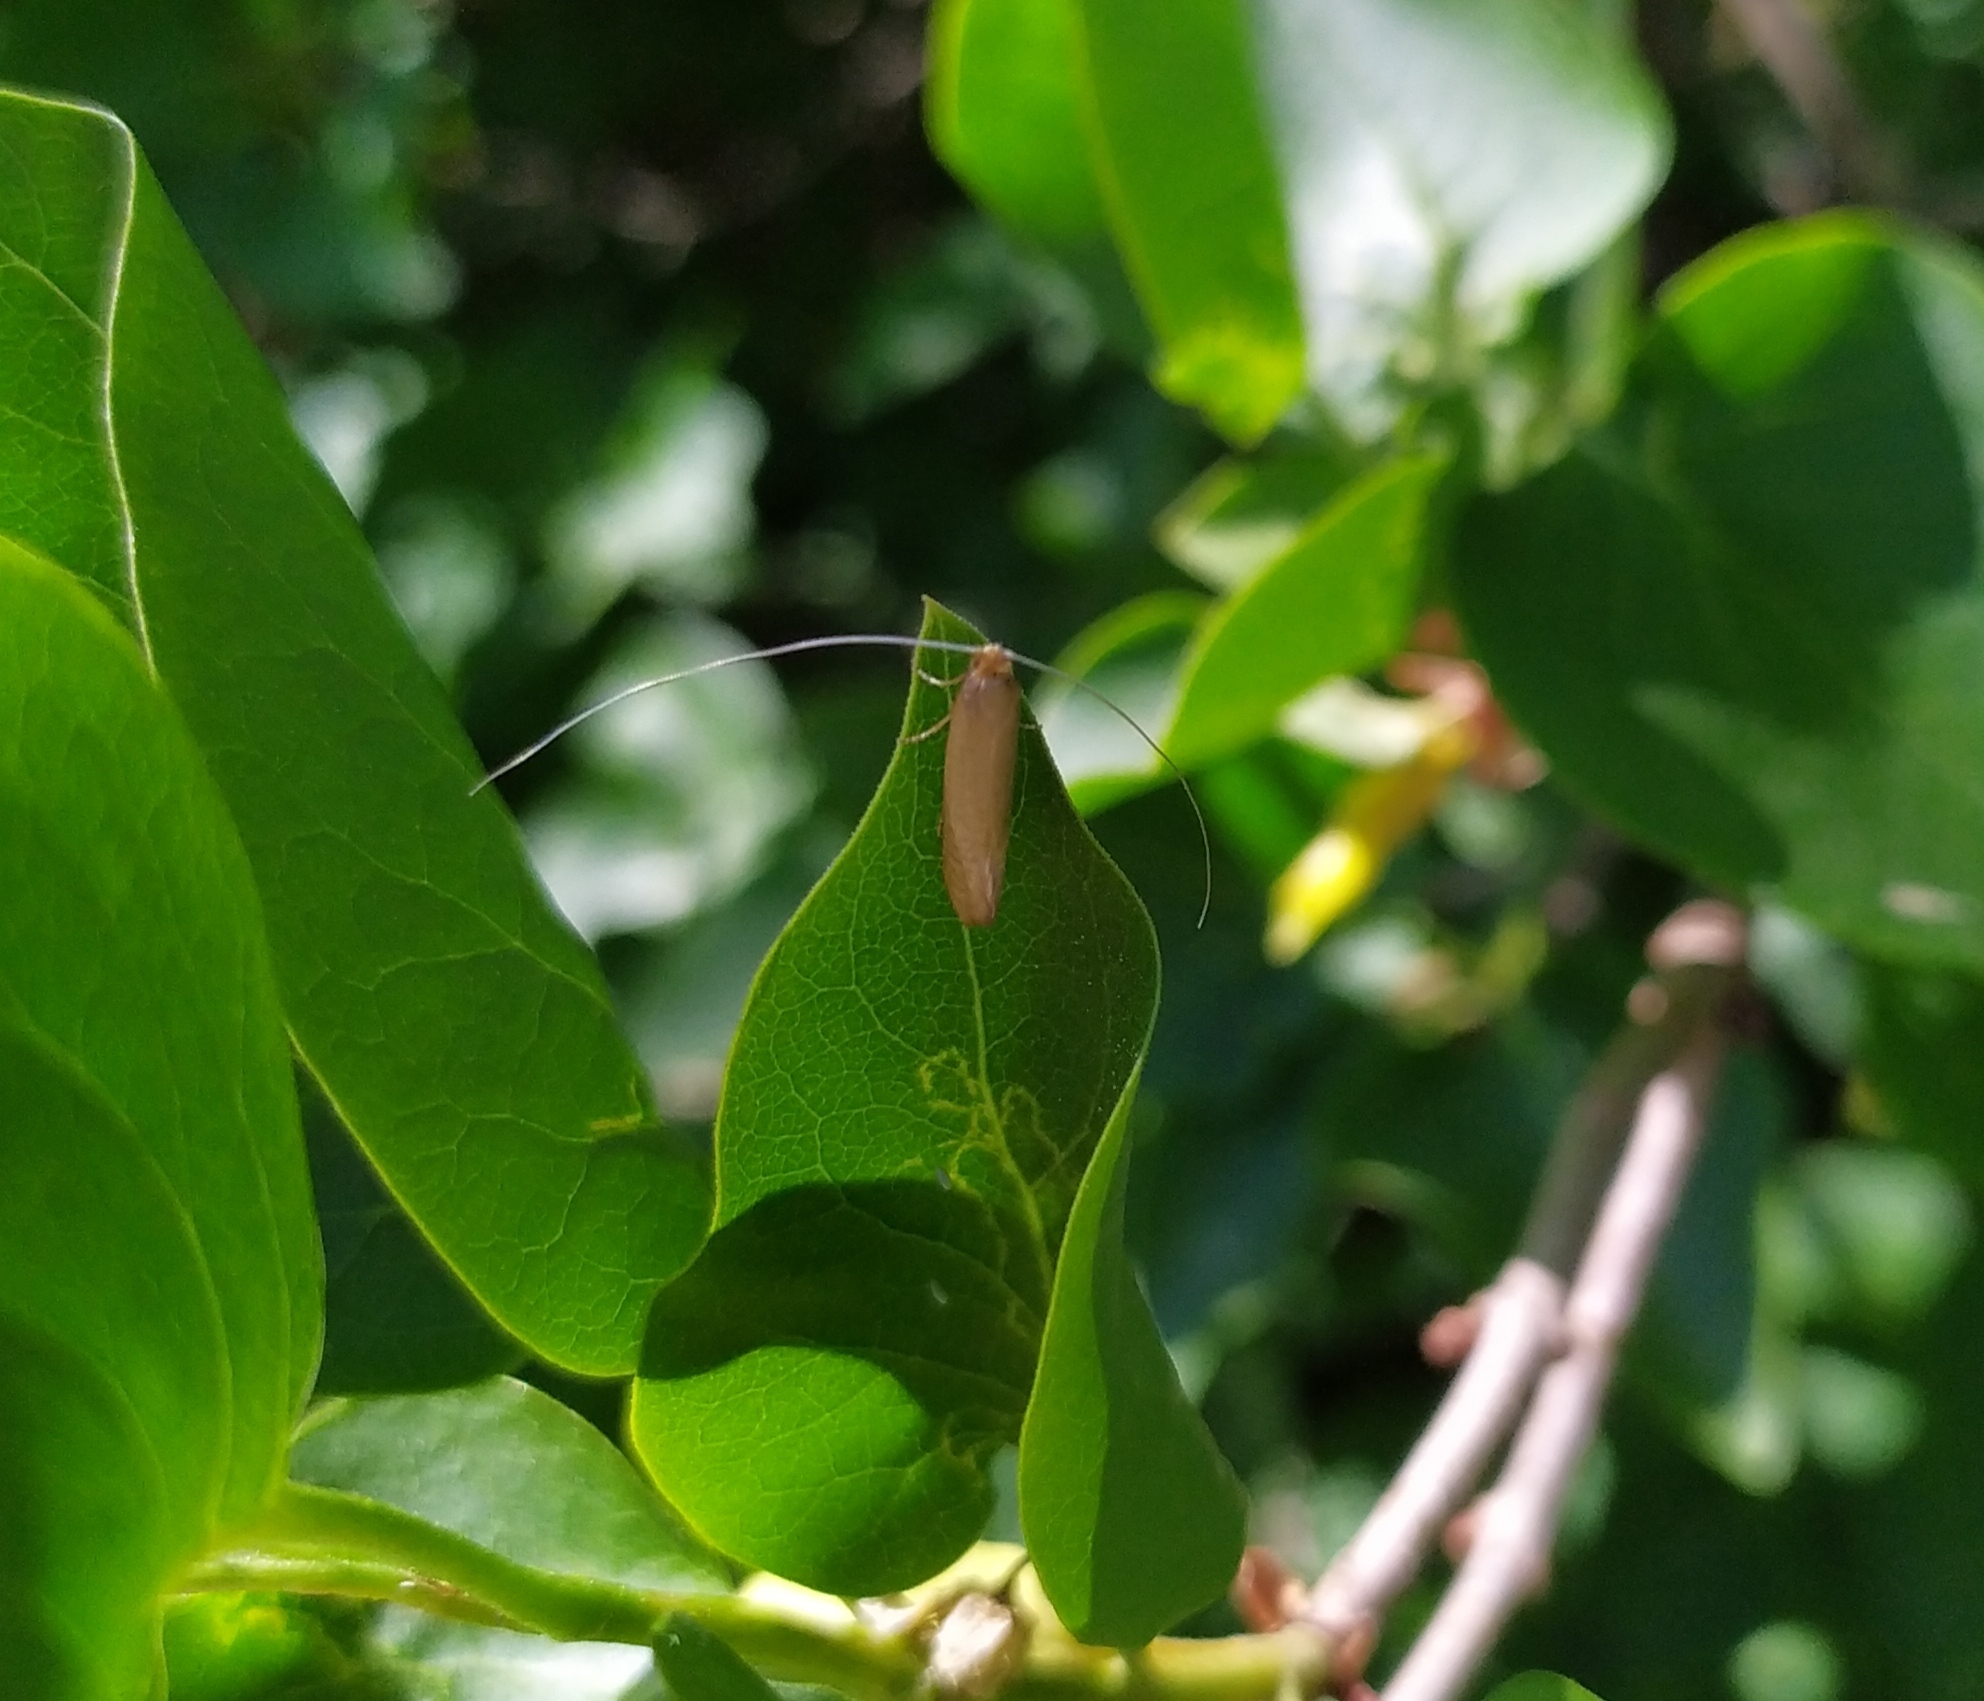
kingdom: Animalia
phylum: Arthropoda
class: Insecta
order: Lepidoptera
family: Adelidae
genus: Nematopogon
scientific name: Nematopogon swammerdamella
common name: Large long-horn
